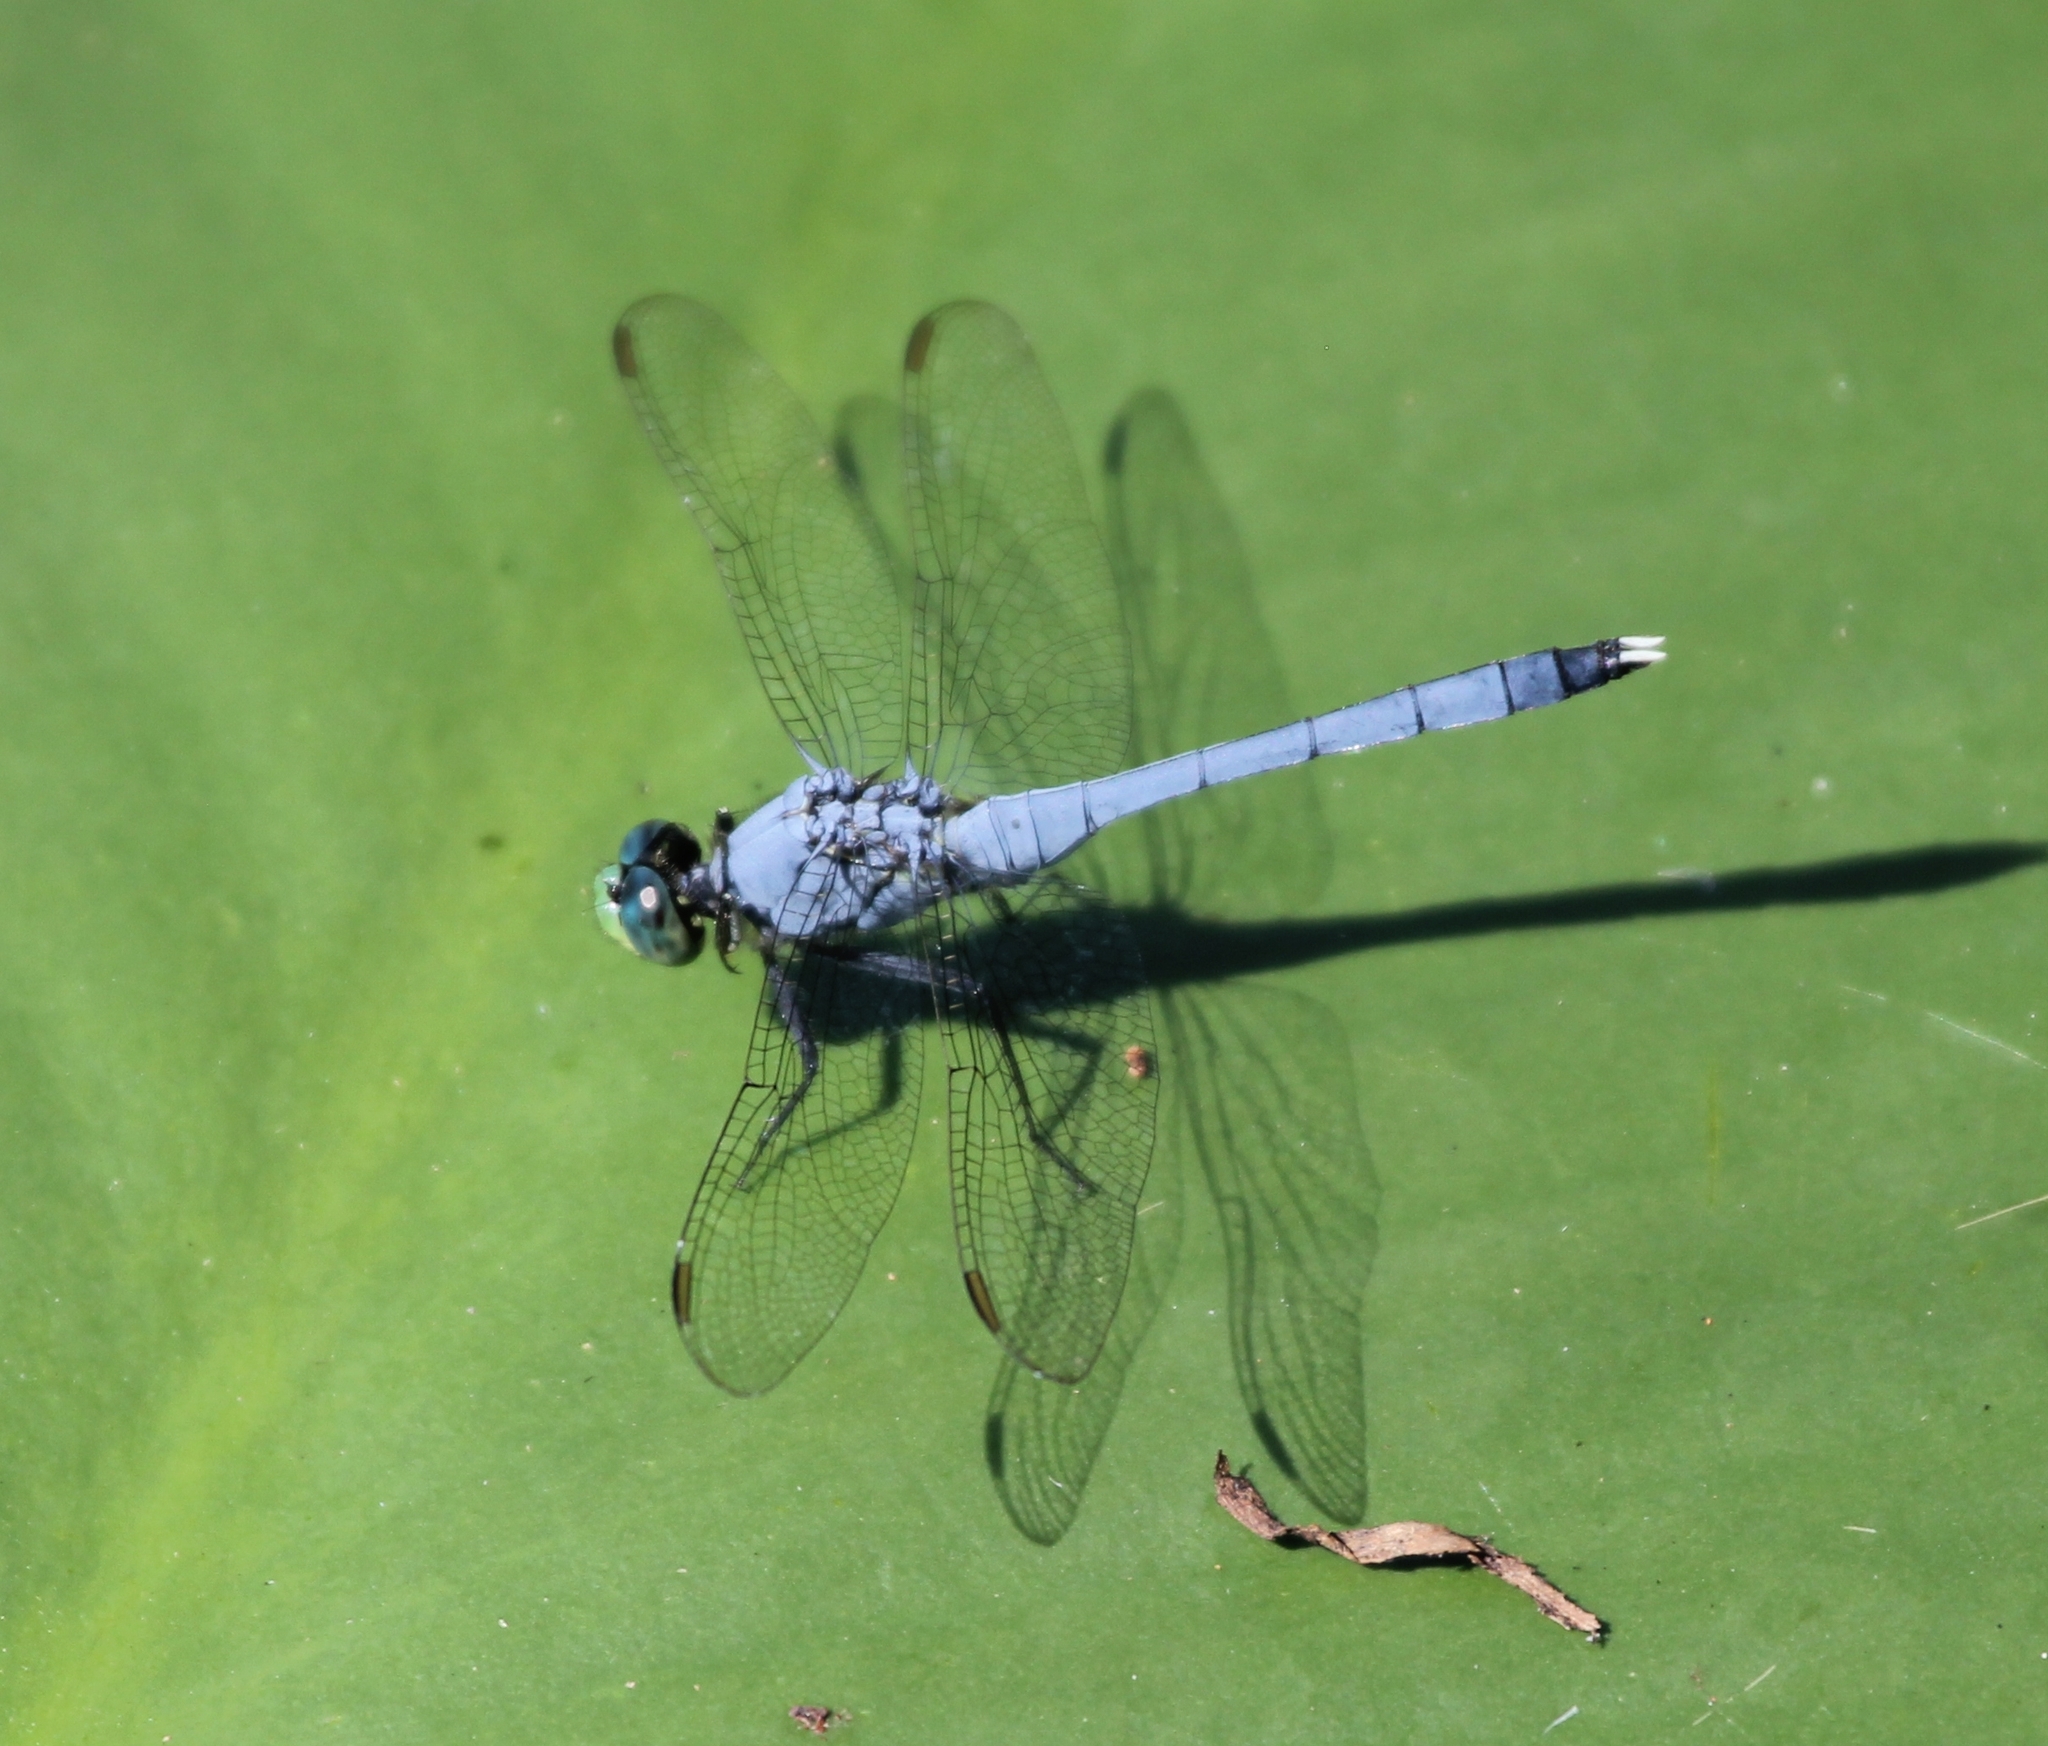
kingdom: Animalia
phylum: Arthropoda
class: Insecta
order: Odonata
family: Libellulidae
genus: Erythemis
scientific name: Erythemis simplicicollis
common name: Eastern pondhawk
